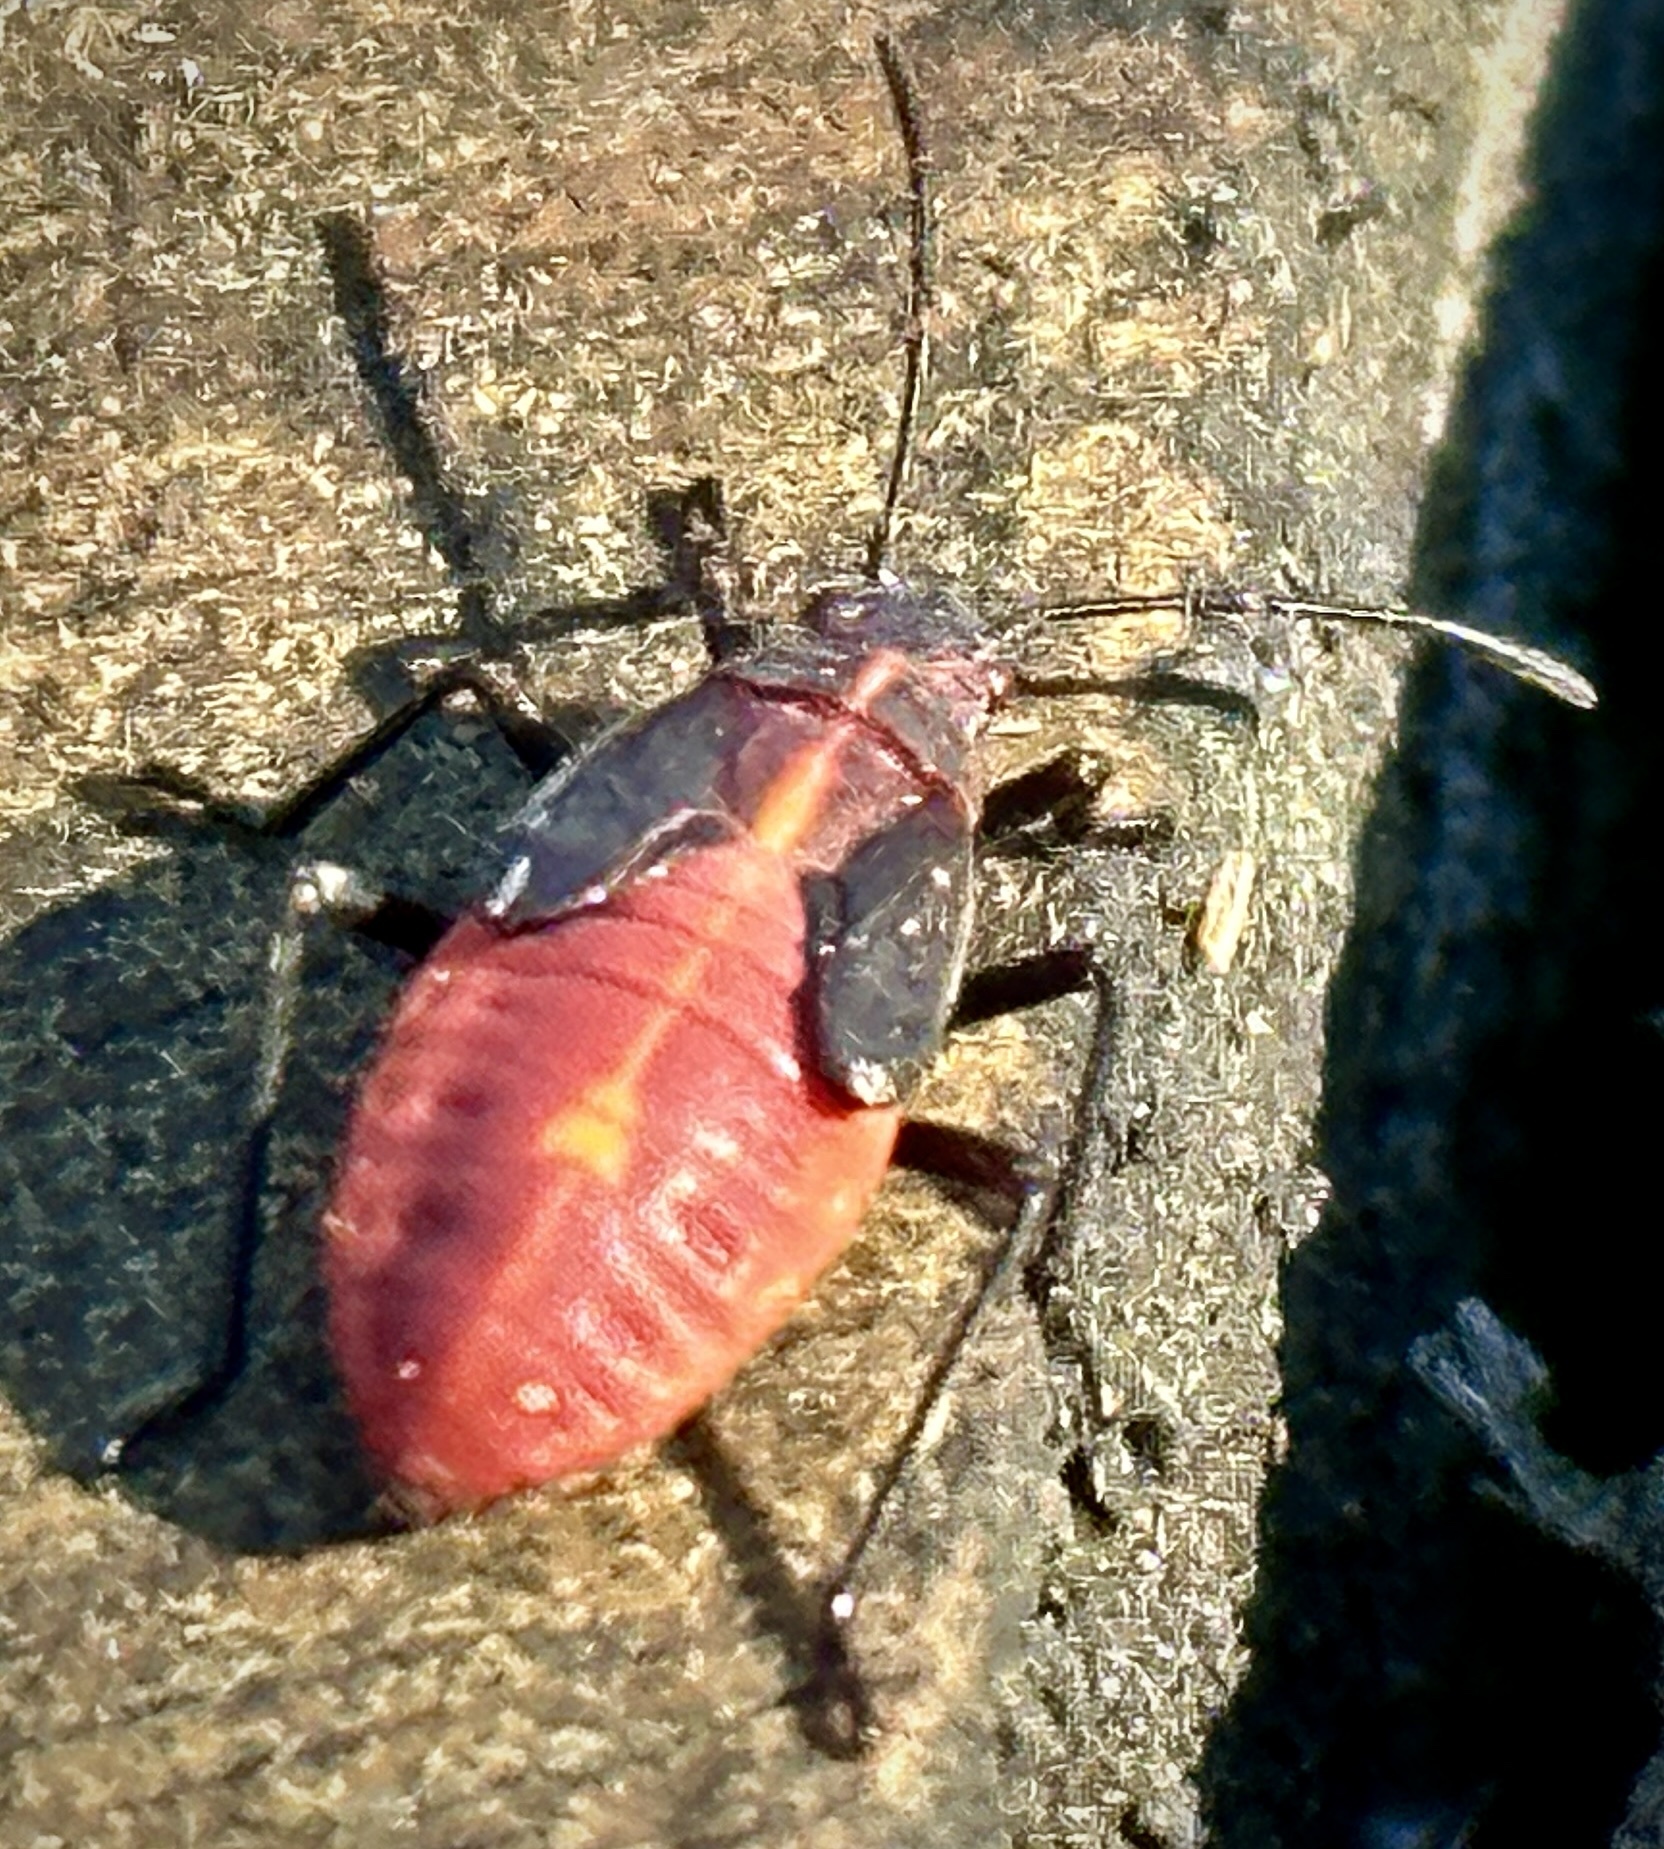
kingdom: Animalia
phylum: Arthropoda
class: Insecta
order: Hemiptera
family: Rhopalidae
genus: Boisea
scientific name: Boisea trivittata
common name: Boxelder bug
